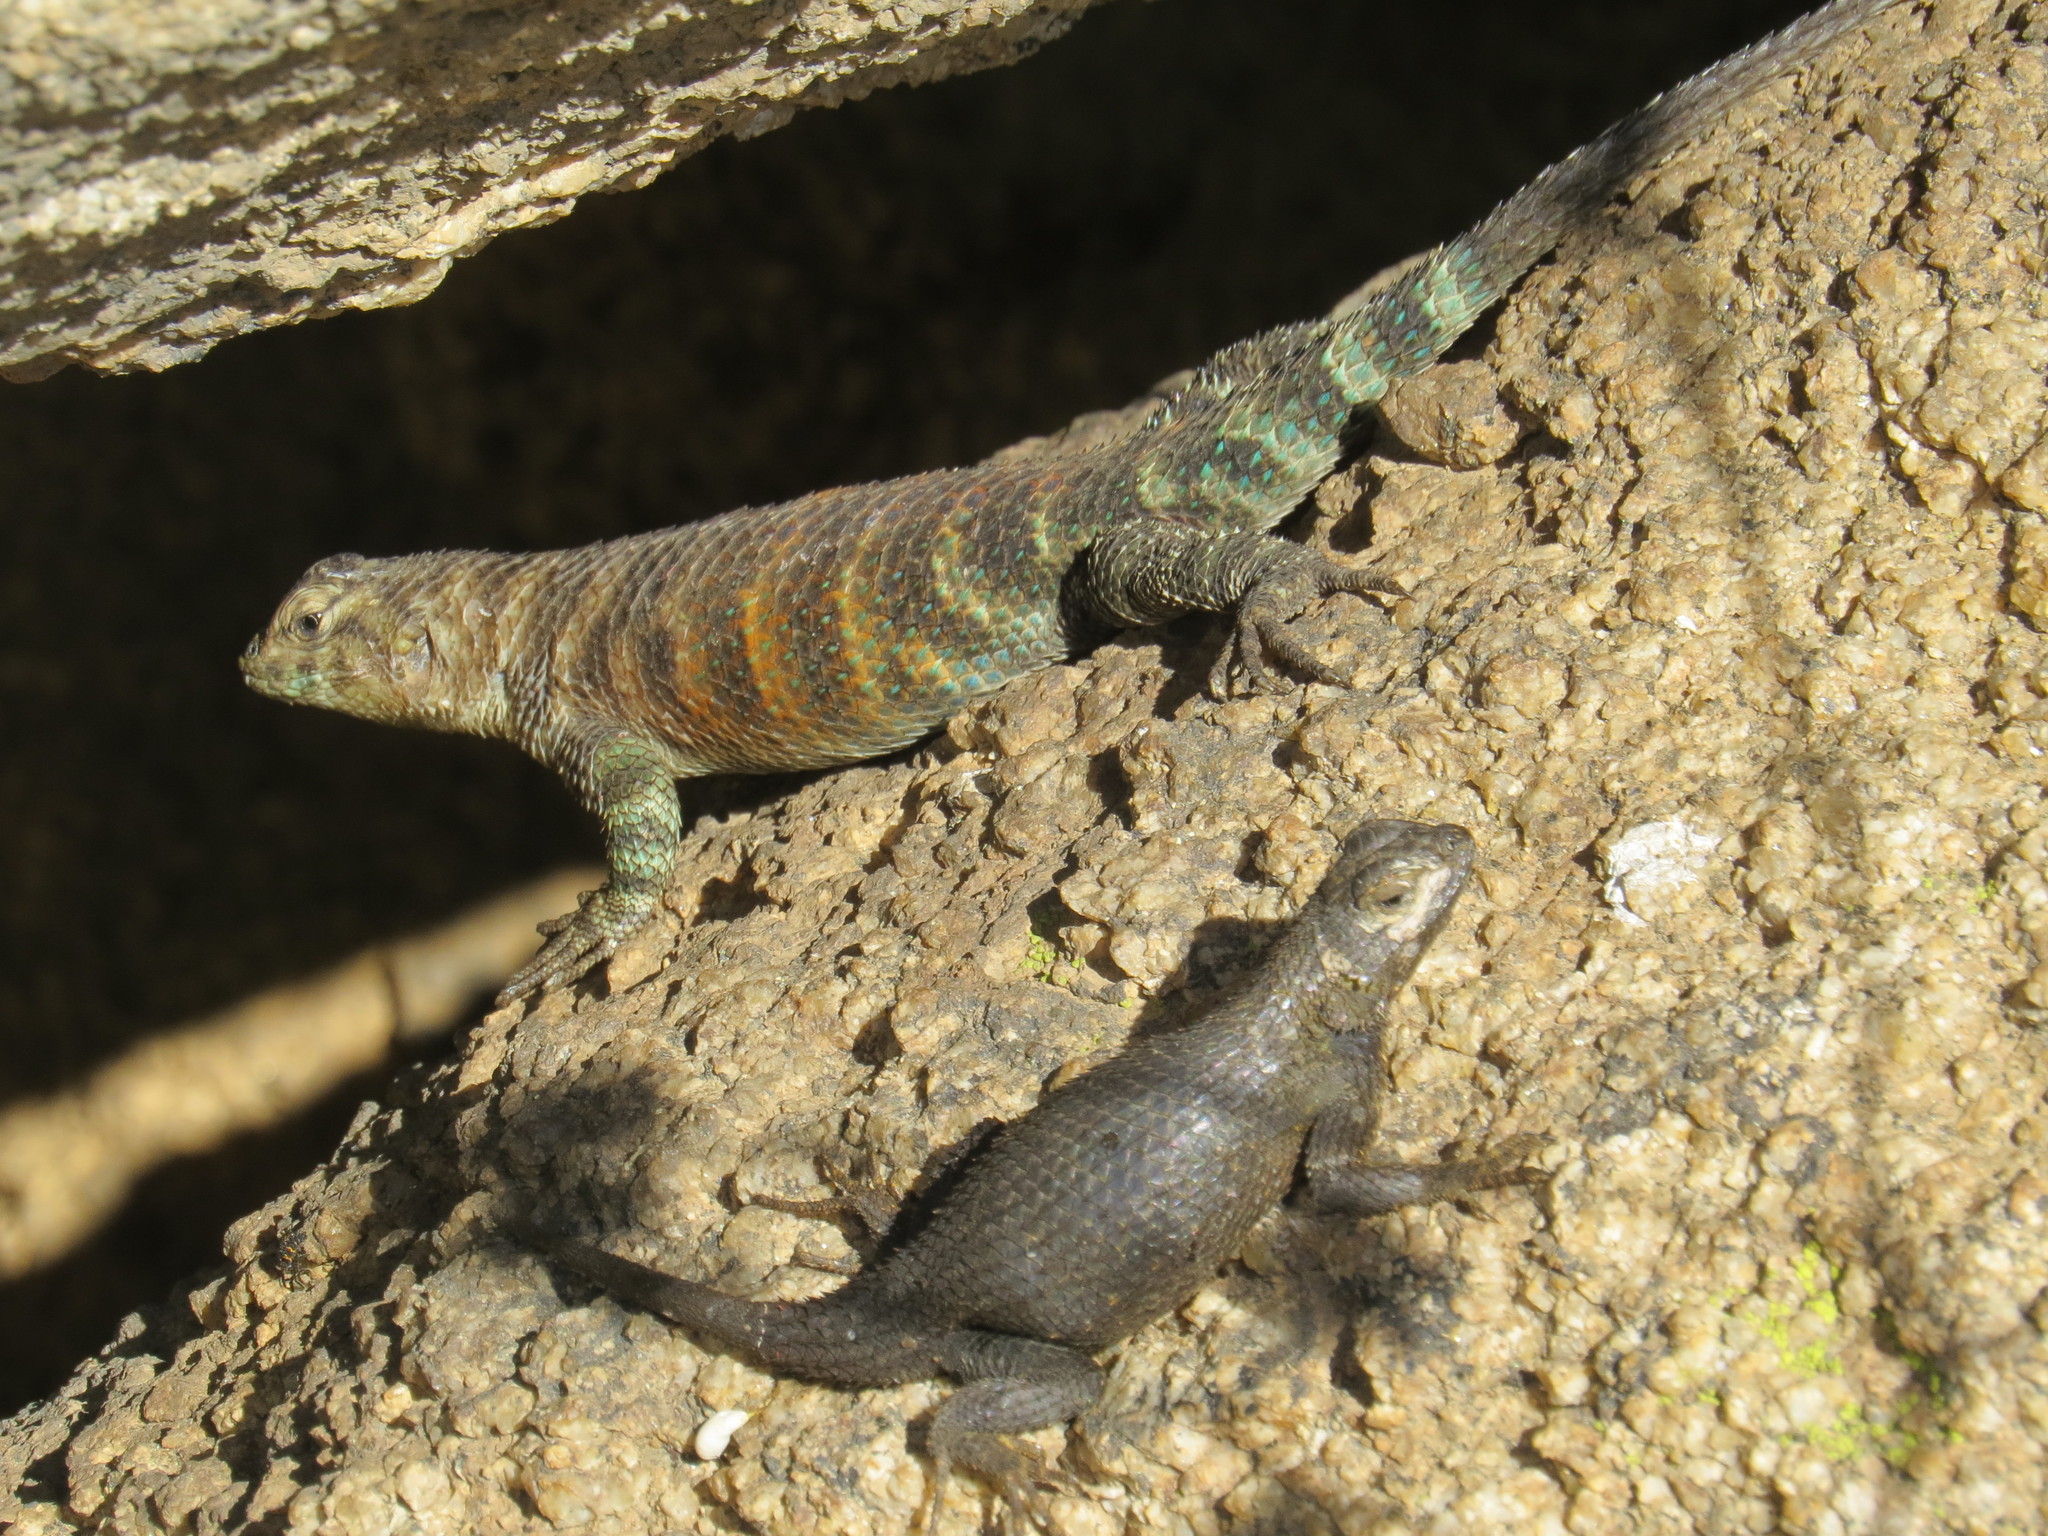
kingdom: Animalia
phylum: Chordata
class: Squamata
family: Phrynosomatidae
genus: Sceloporus
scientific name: Sceloporus orcutti
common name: Granite spiny lizard
